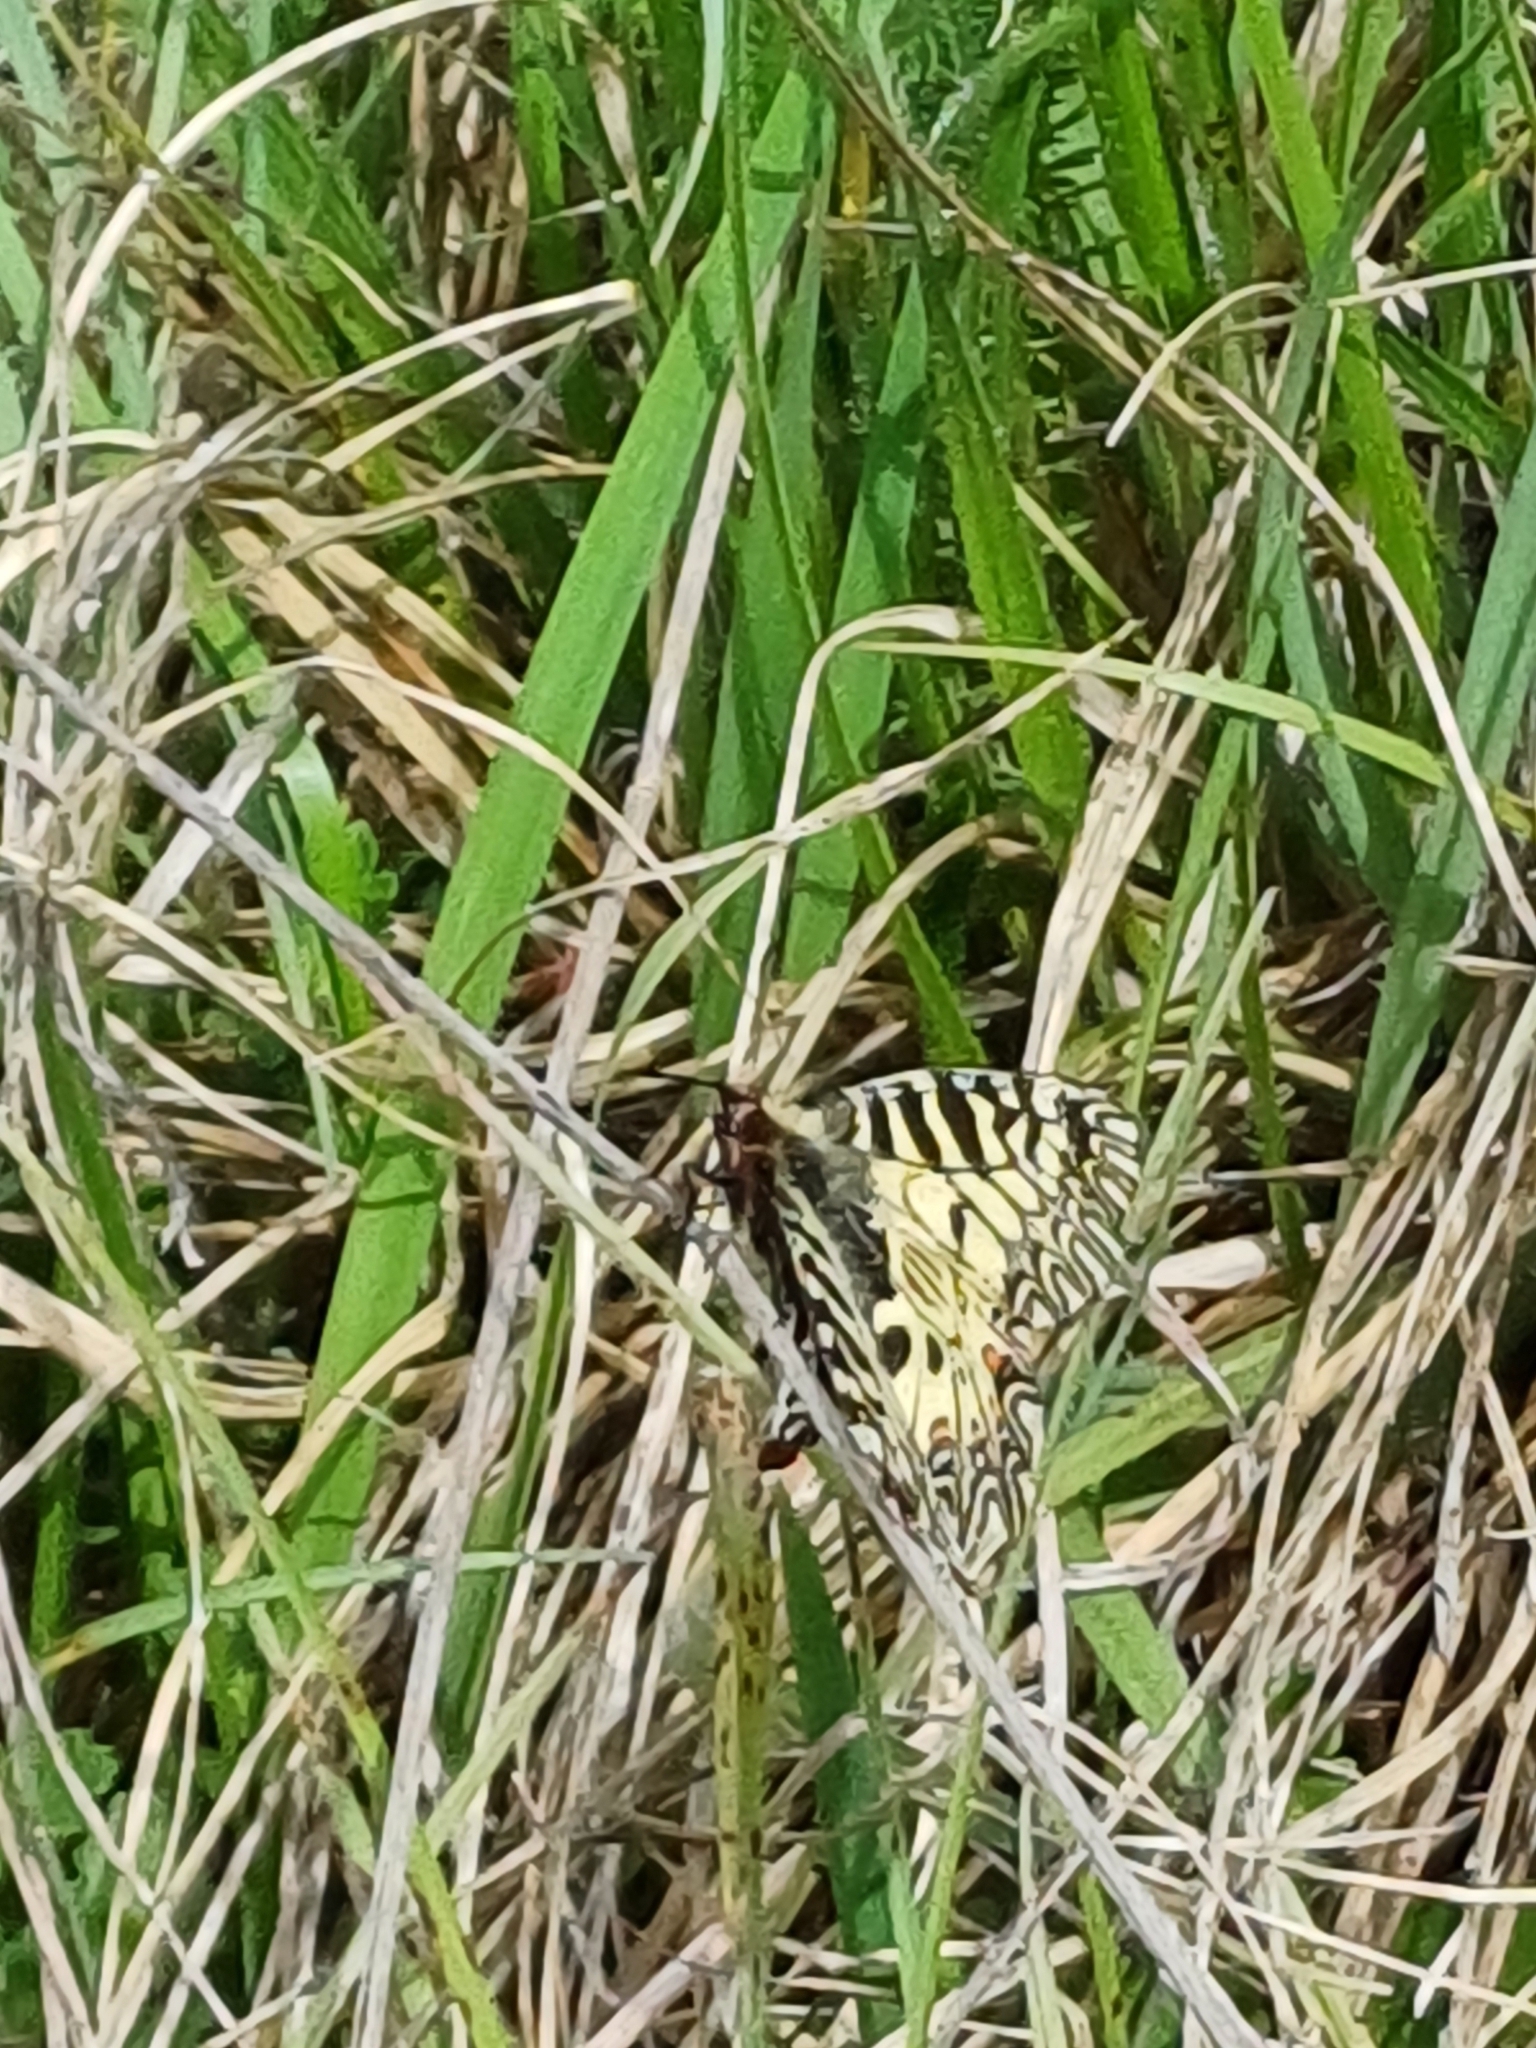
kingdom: Animalia
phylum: Arthropoda
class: Insecta
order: Lepidoptera
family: Papilionidae
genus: Zerynthia
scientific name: Zerynthia polyxena
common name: Southern festoon
